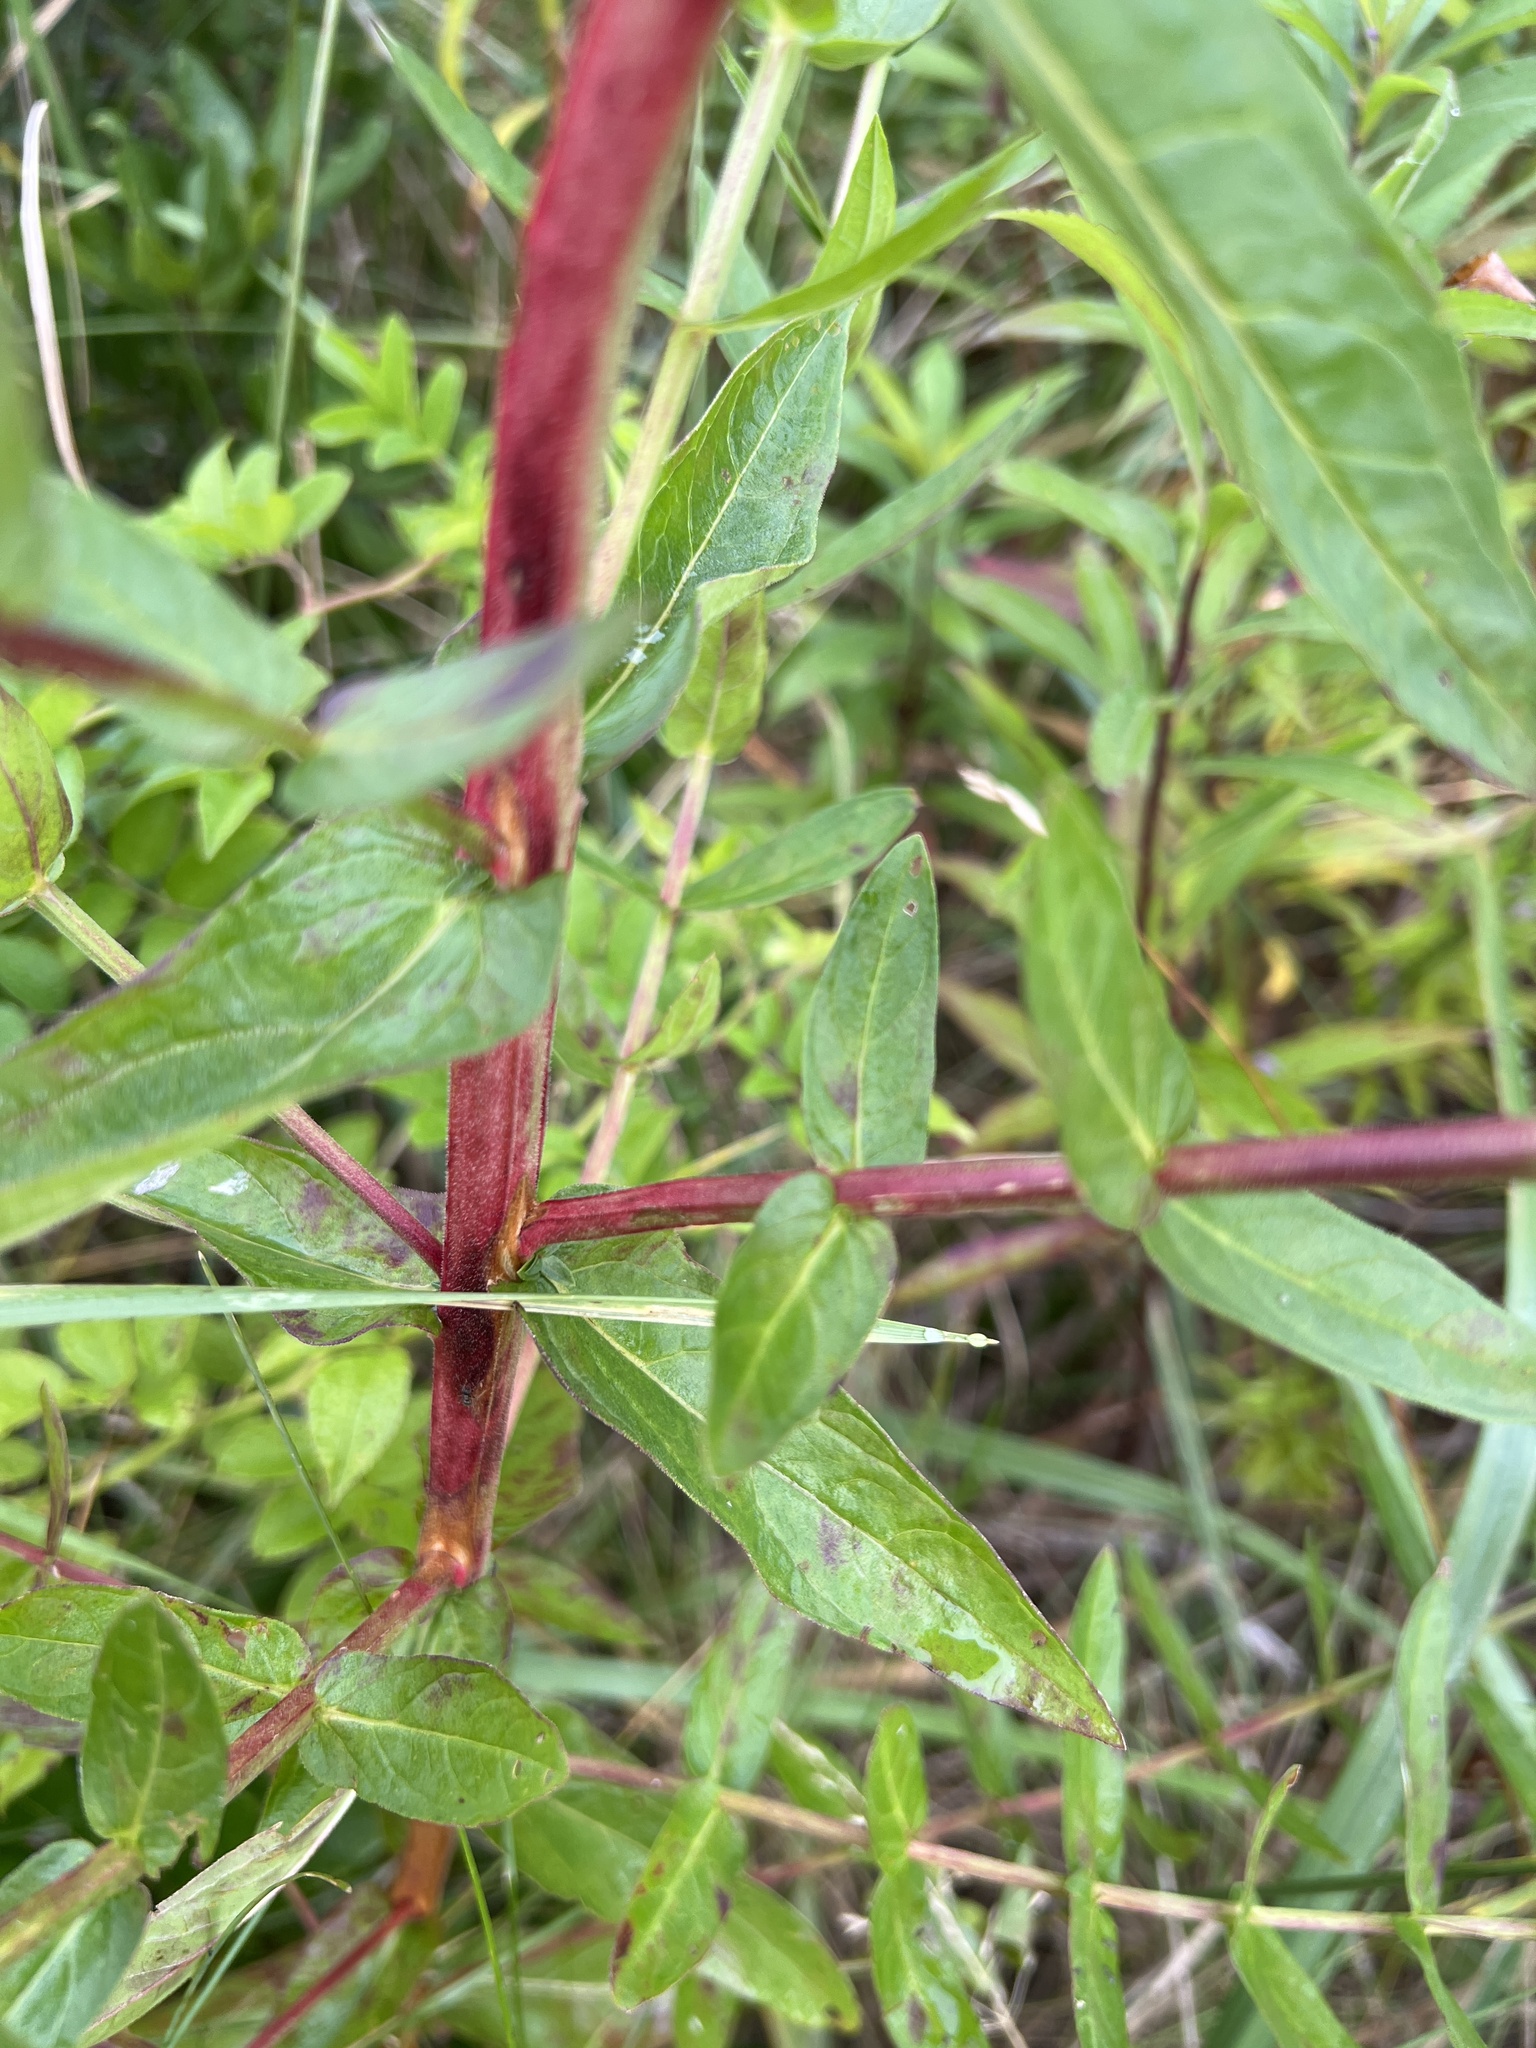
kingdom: Plantae
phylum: Tracheophyta
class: Magnoliopsida
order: Myrtales
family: Lythraceae
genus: Lythrum
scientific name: Lythrum salicaria
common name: Purple loosestrife
